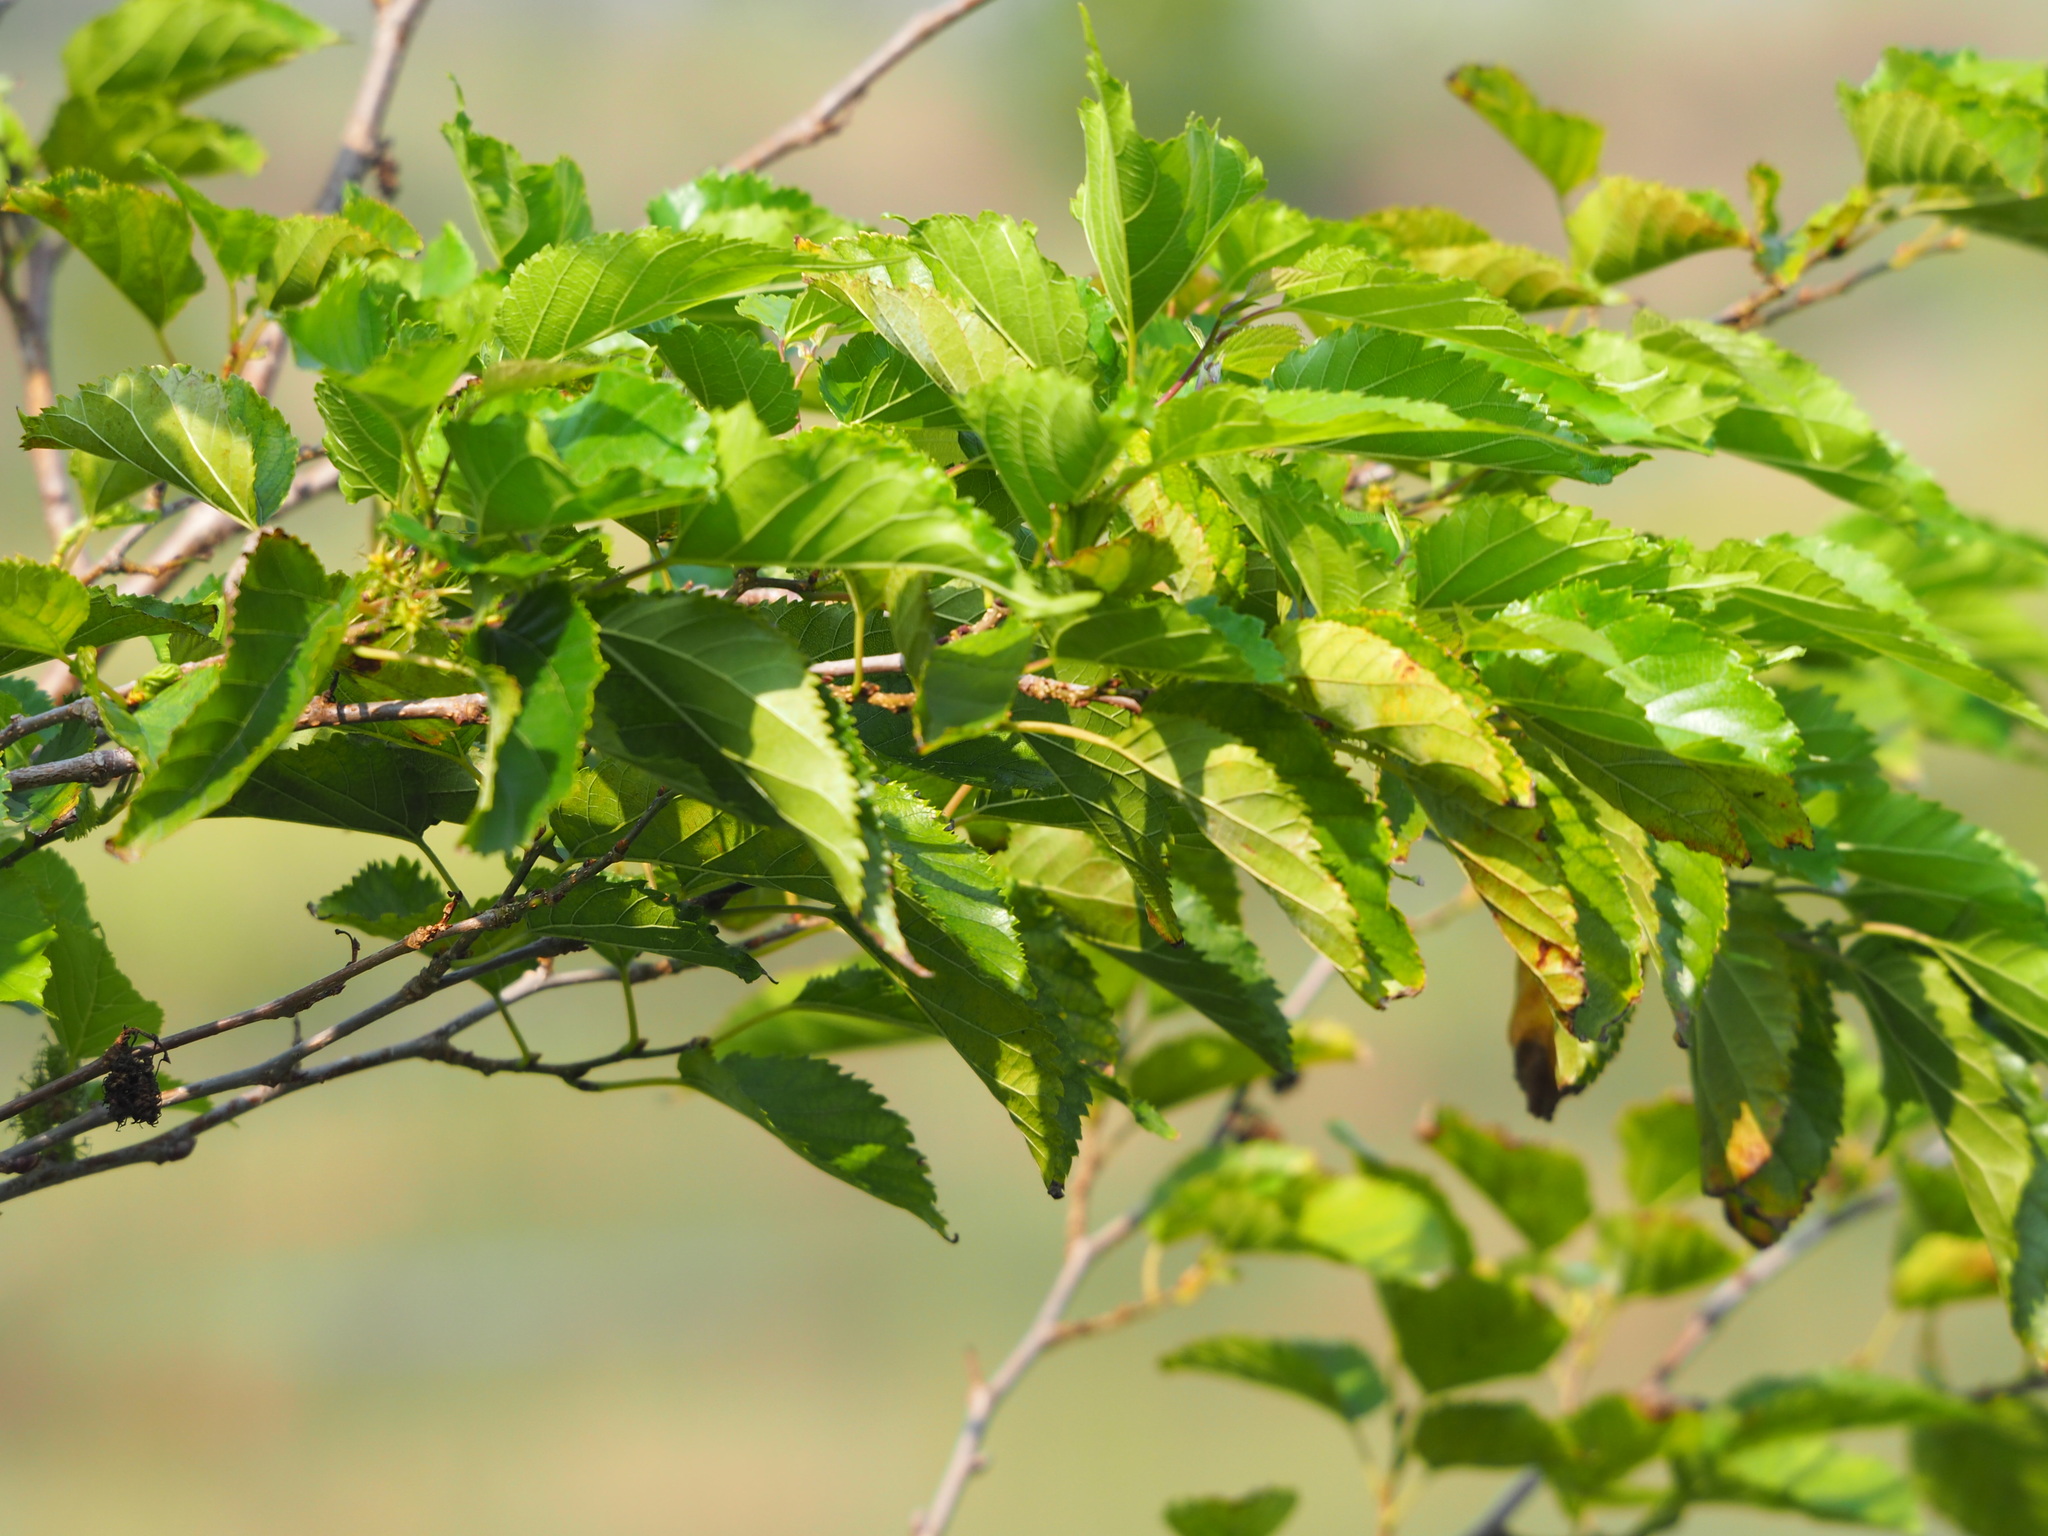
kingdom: Plantae
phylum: Tracheophyta
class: Magnoliopsida
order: Rosales
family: Moraceae
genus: Morus
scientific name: Morus indica
